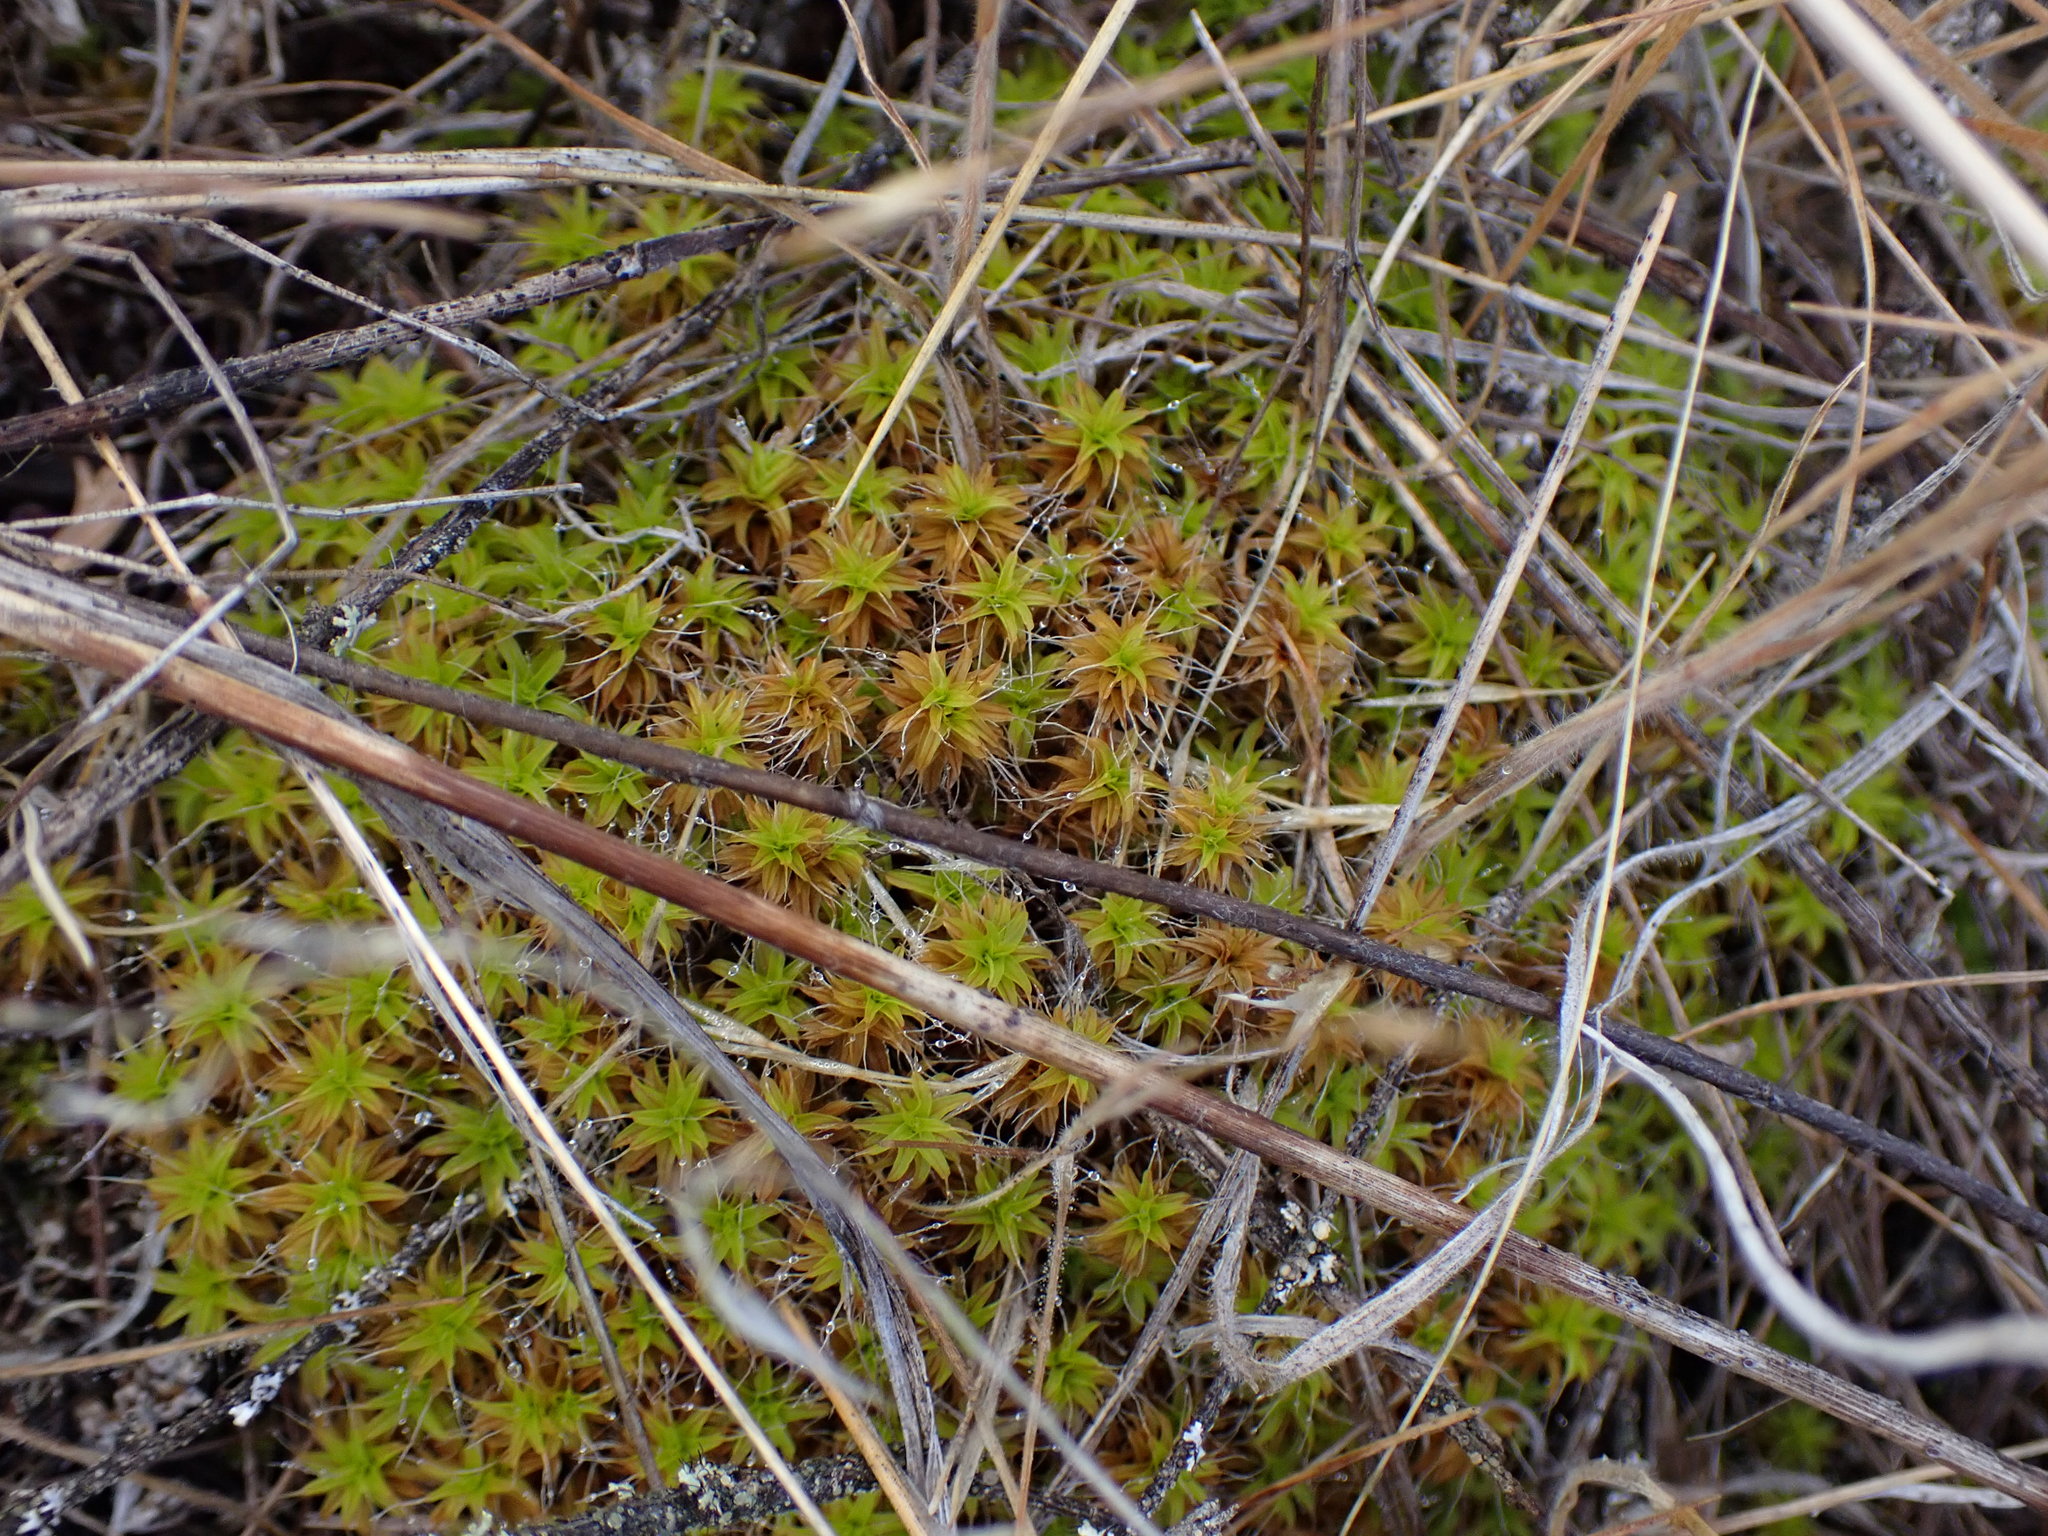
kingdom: Plantae
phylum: Bryophyta
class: Bryopsida
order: Pottiales
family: Pottiaceae
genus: Syntrichia
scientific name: Syntrichia ruralis
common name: Sidewalk screw moss
